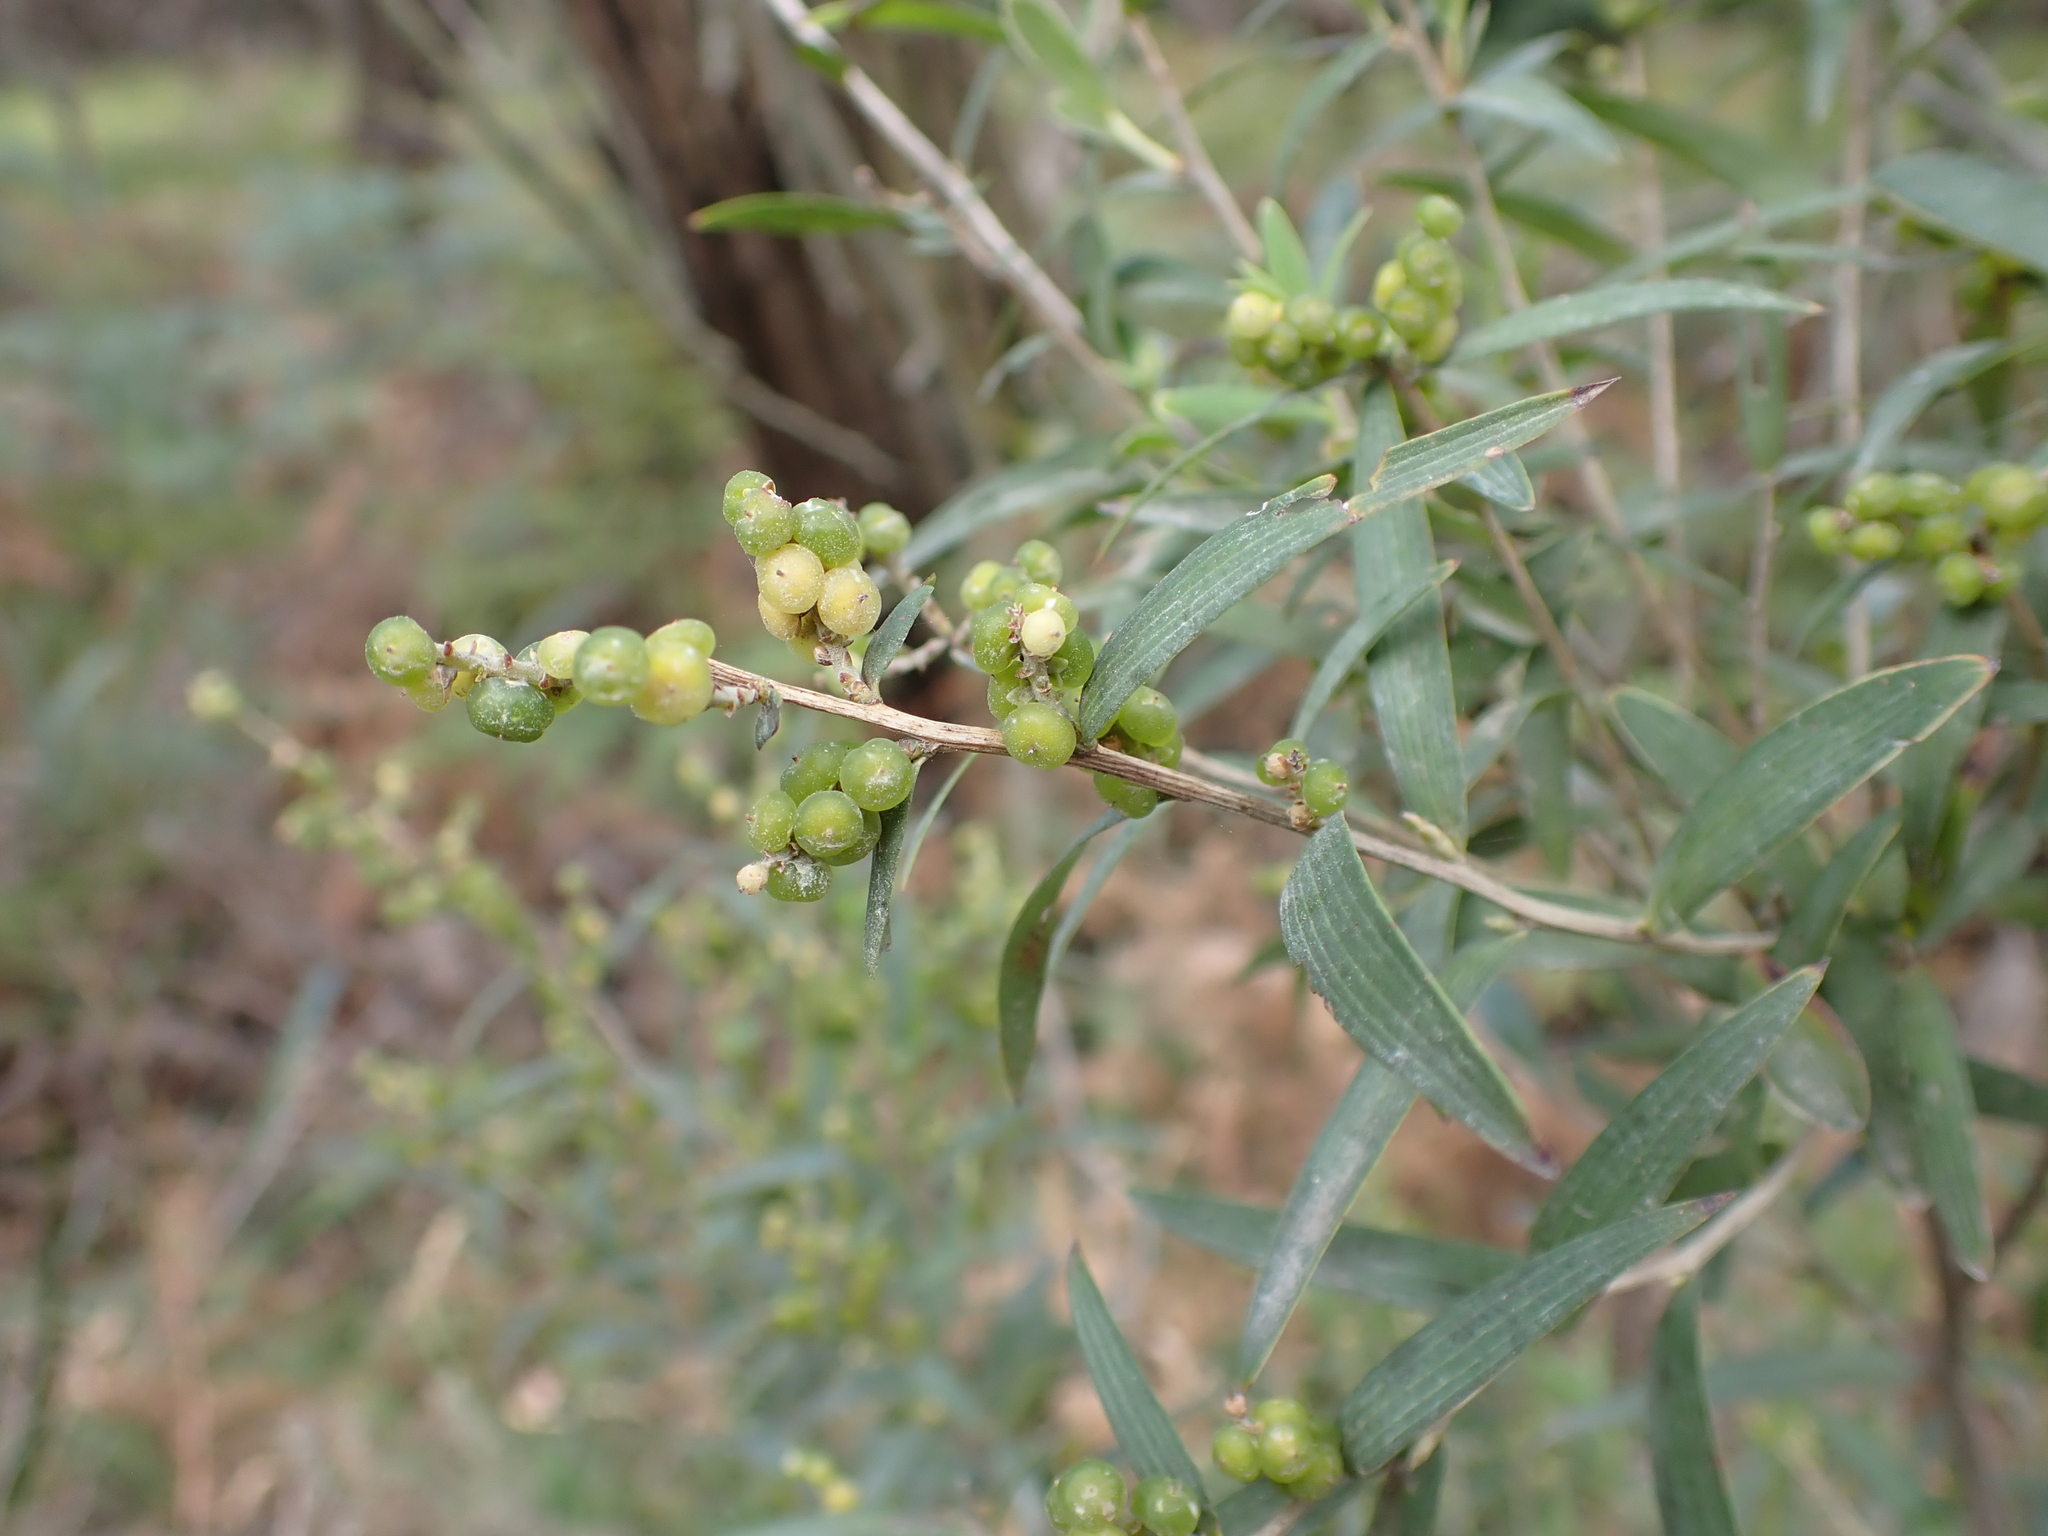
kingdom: Plantae
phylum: Tracheophyta
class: Magnoliopsida
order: Ericales
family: Ericaceae
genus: Leucopogon
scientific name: Leucopogon australis
